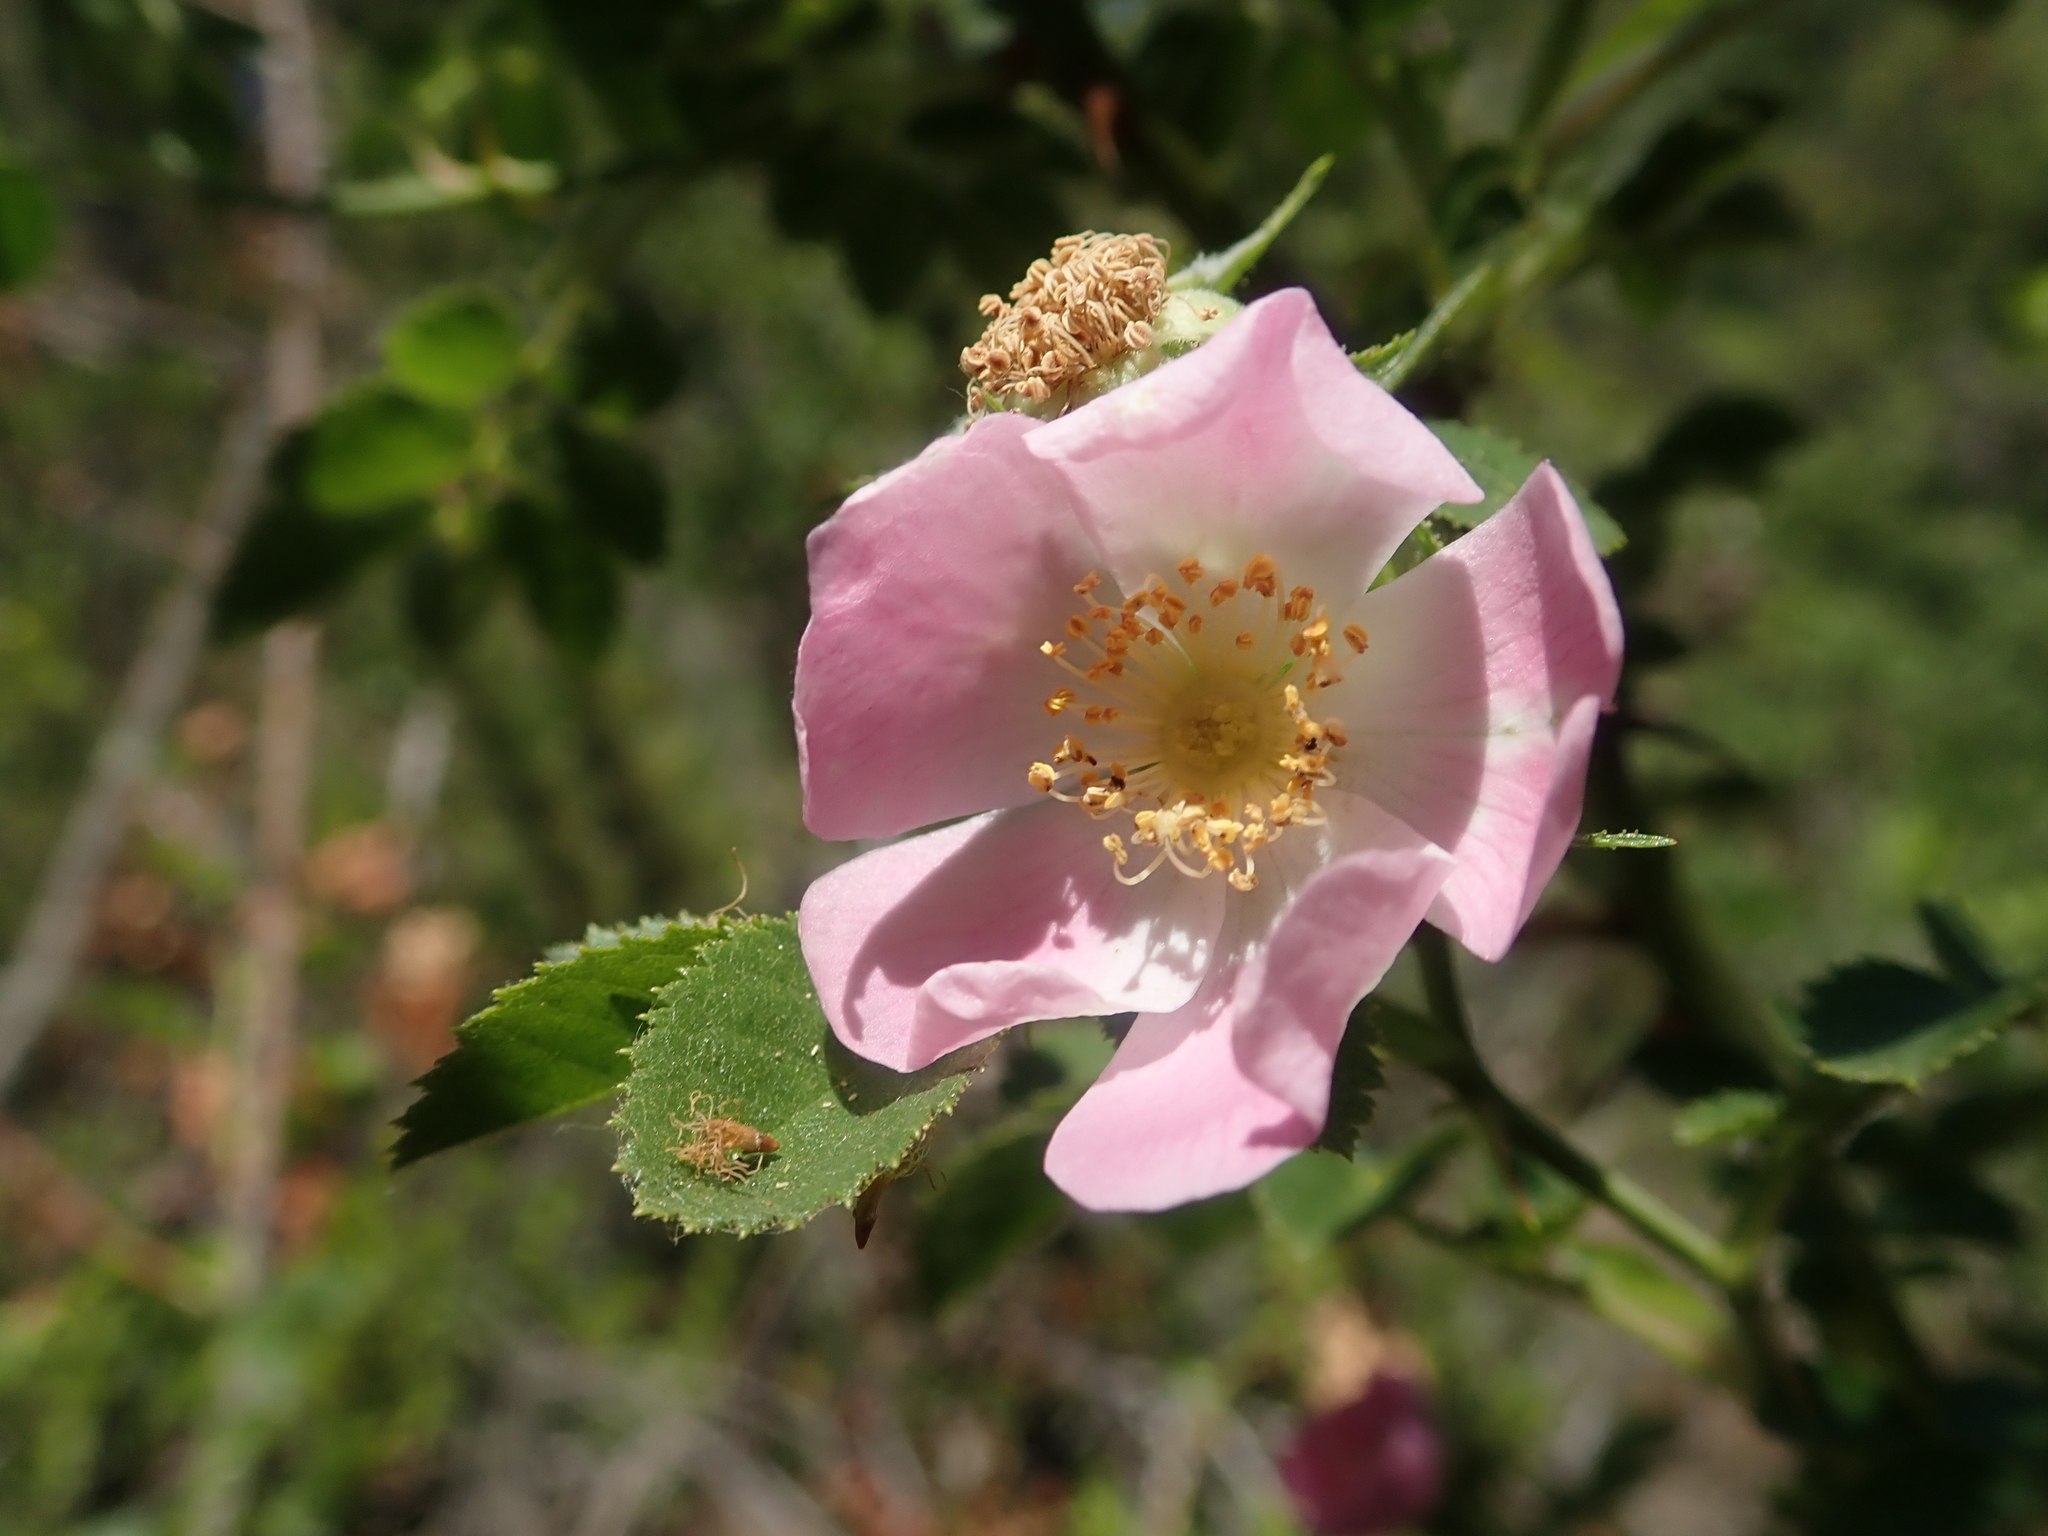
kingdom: Plantae
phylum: Tracheophyta
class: Magnoliopsida
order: Rosales
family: Rosaceae
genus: Rosa
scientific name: Rosa rubiginosa
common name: Sweet-briar
